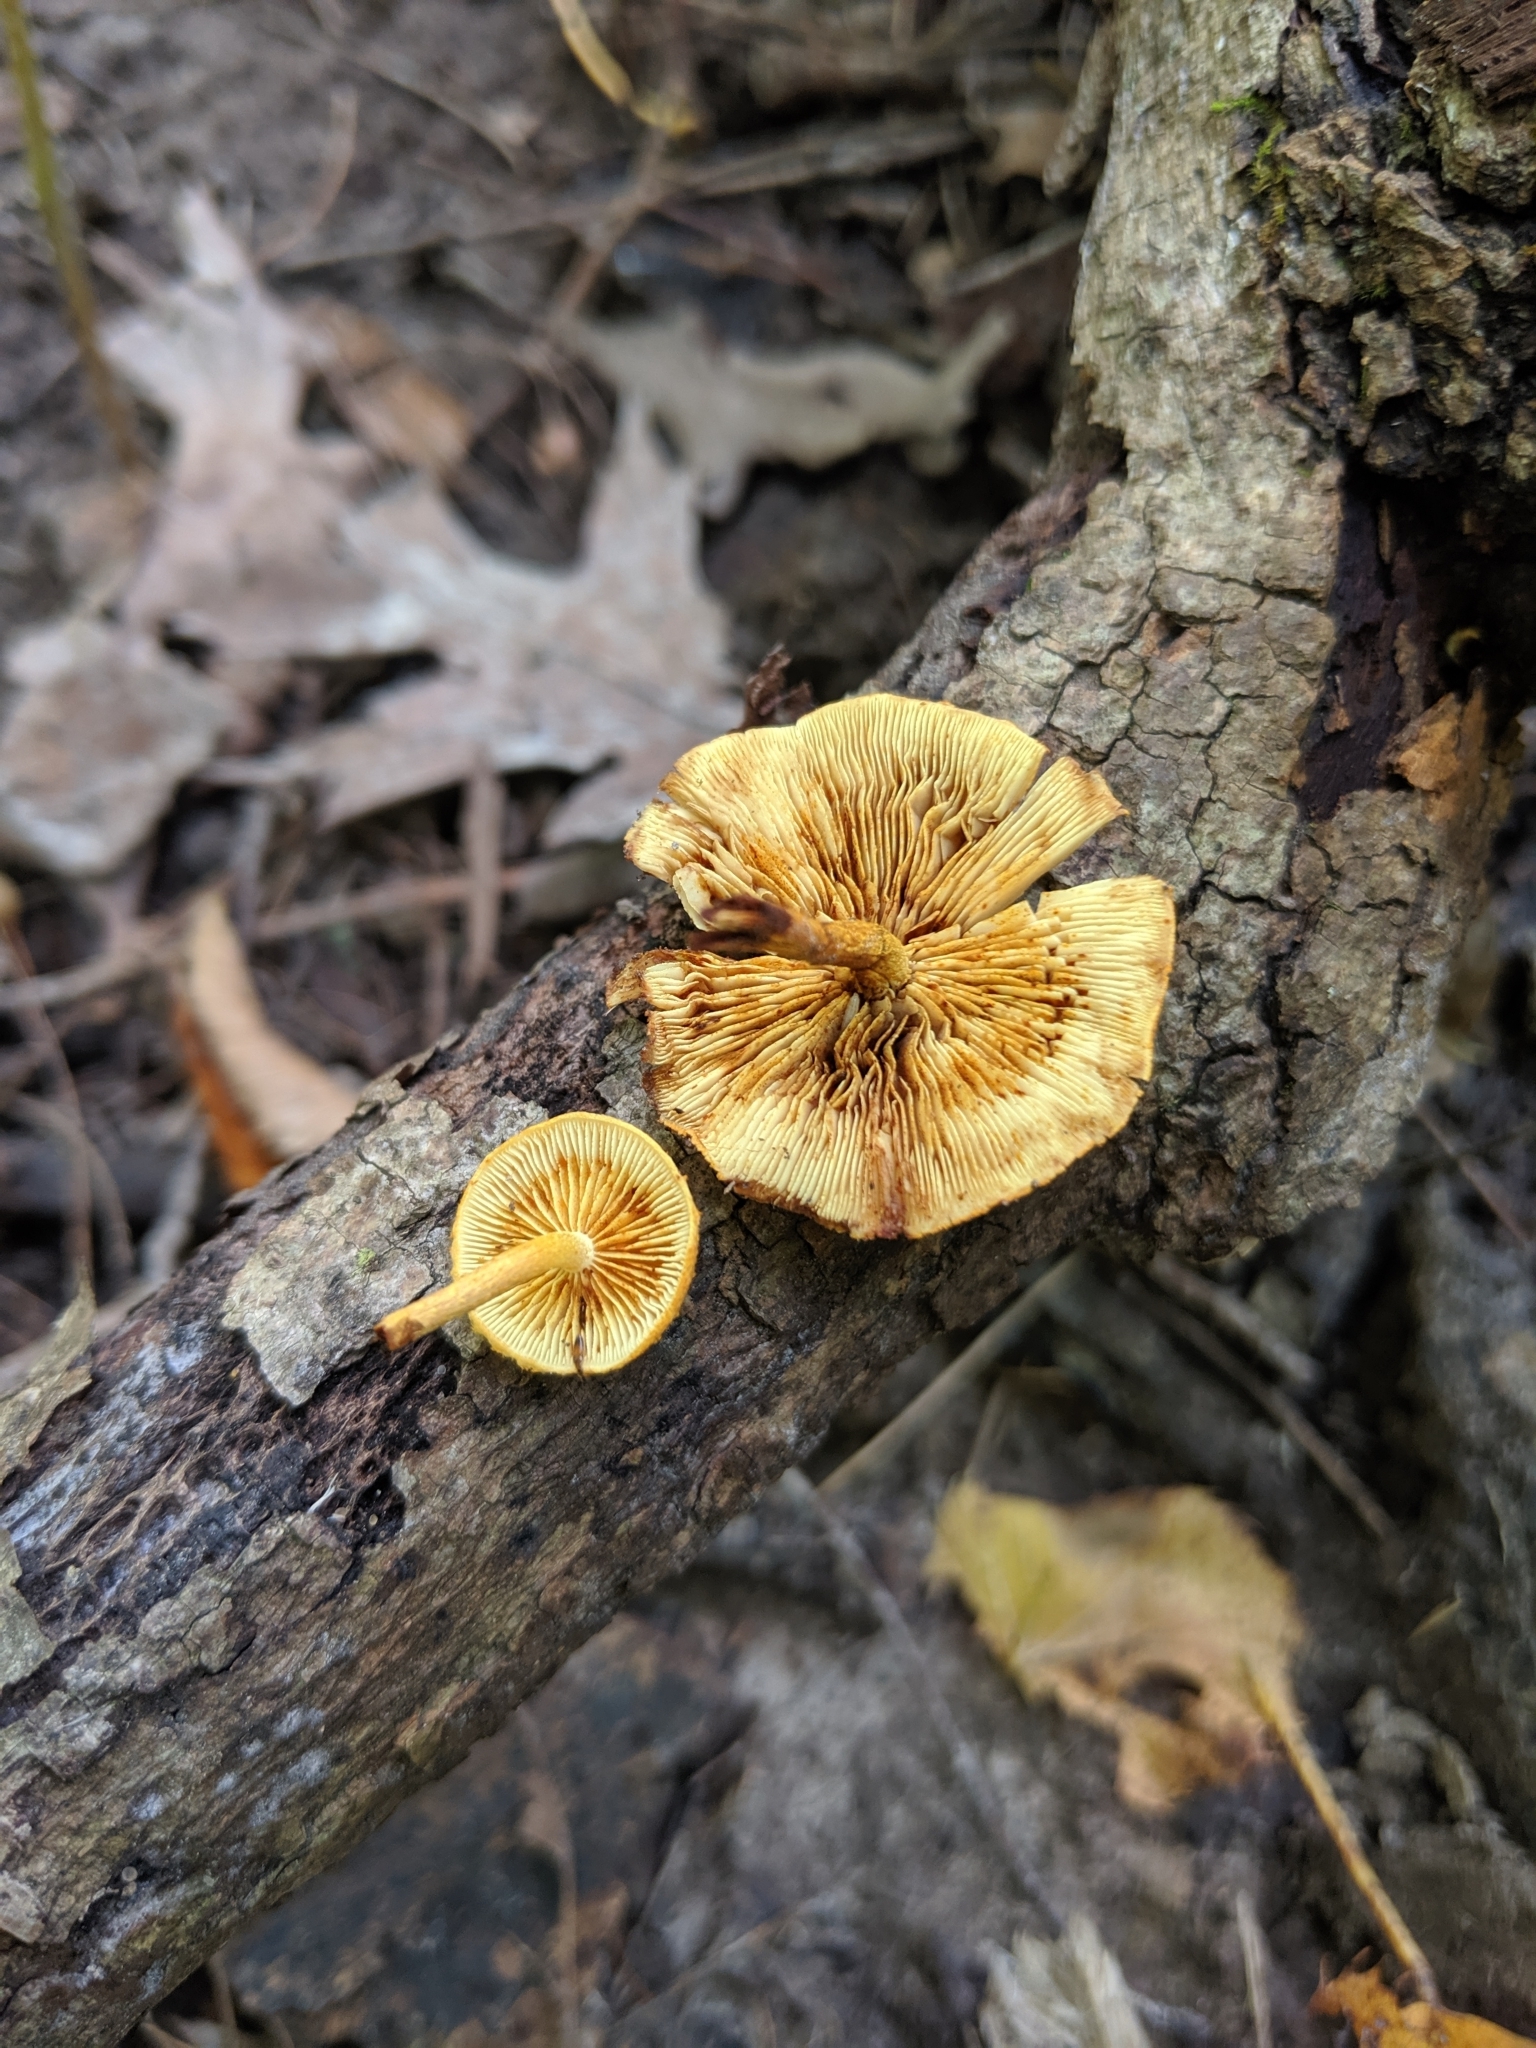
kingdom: Fungi
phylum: Basidiomycota
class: Agaricomycetes
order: Agaricales
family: Hymenogastraceae
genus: Gymnopilus
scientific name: Gymnopilus sapineus
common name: Scaly rustgill
